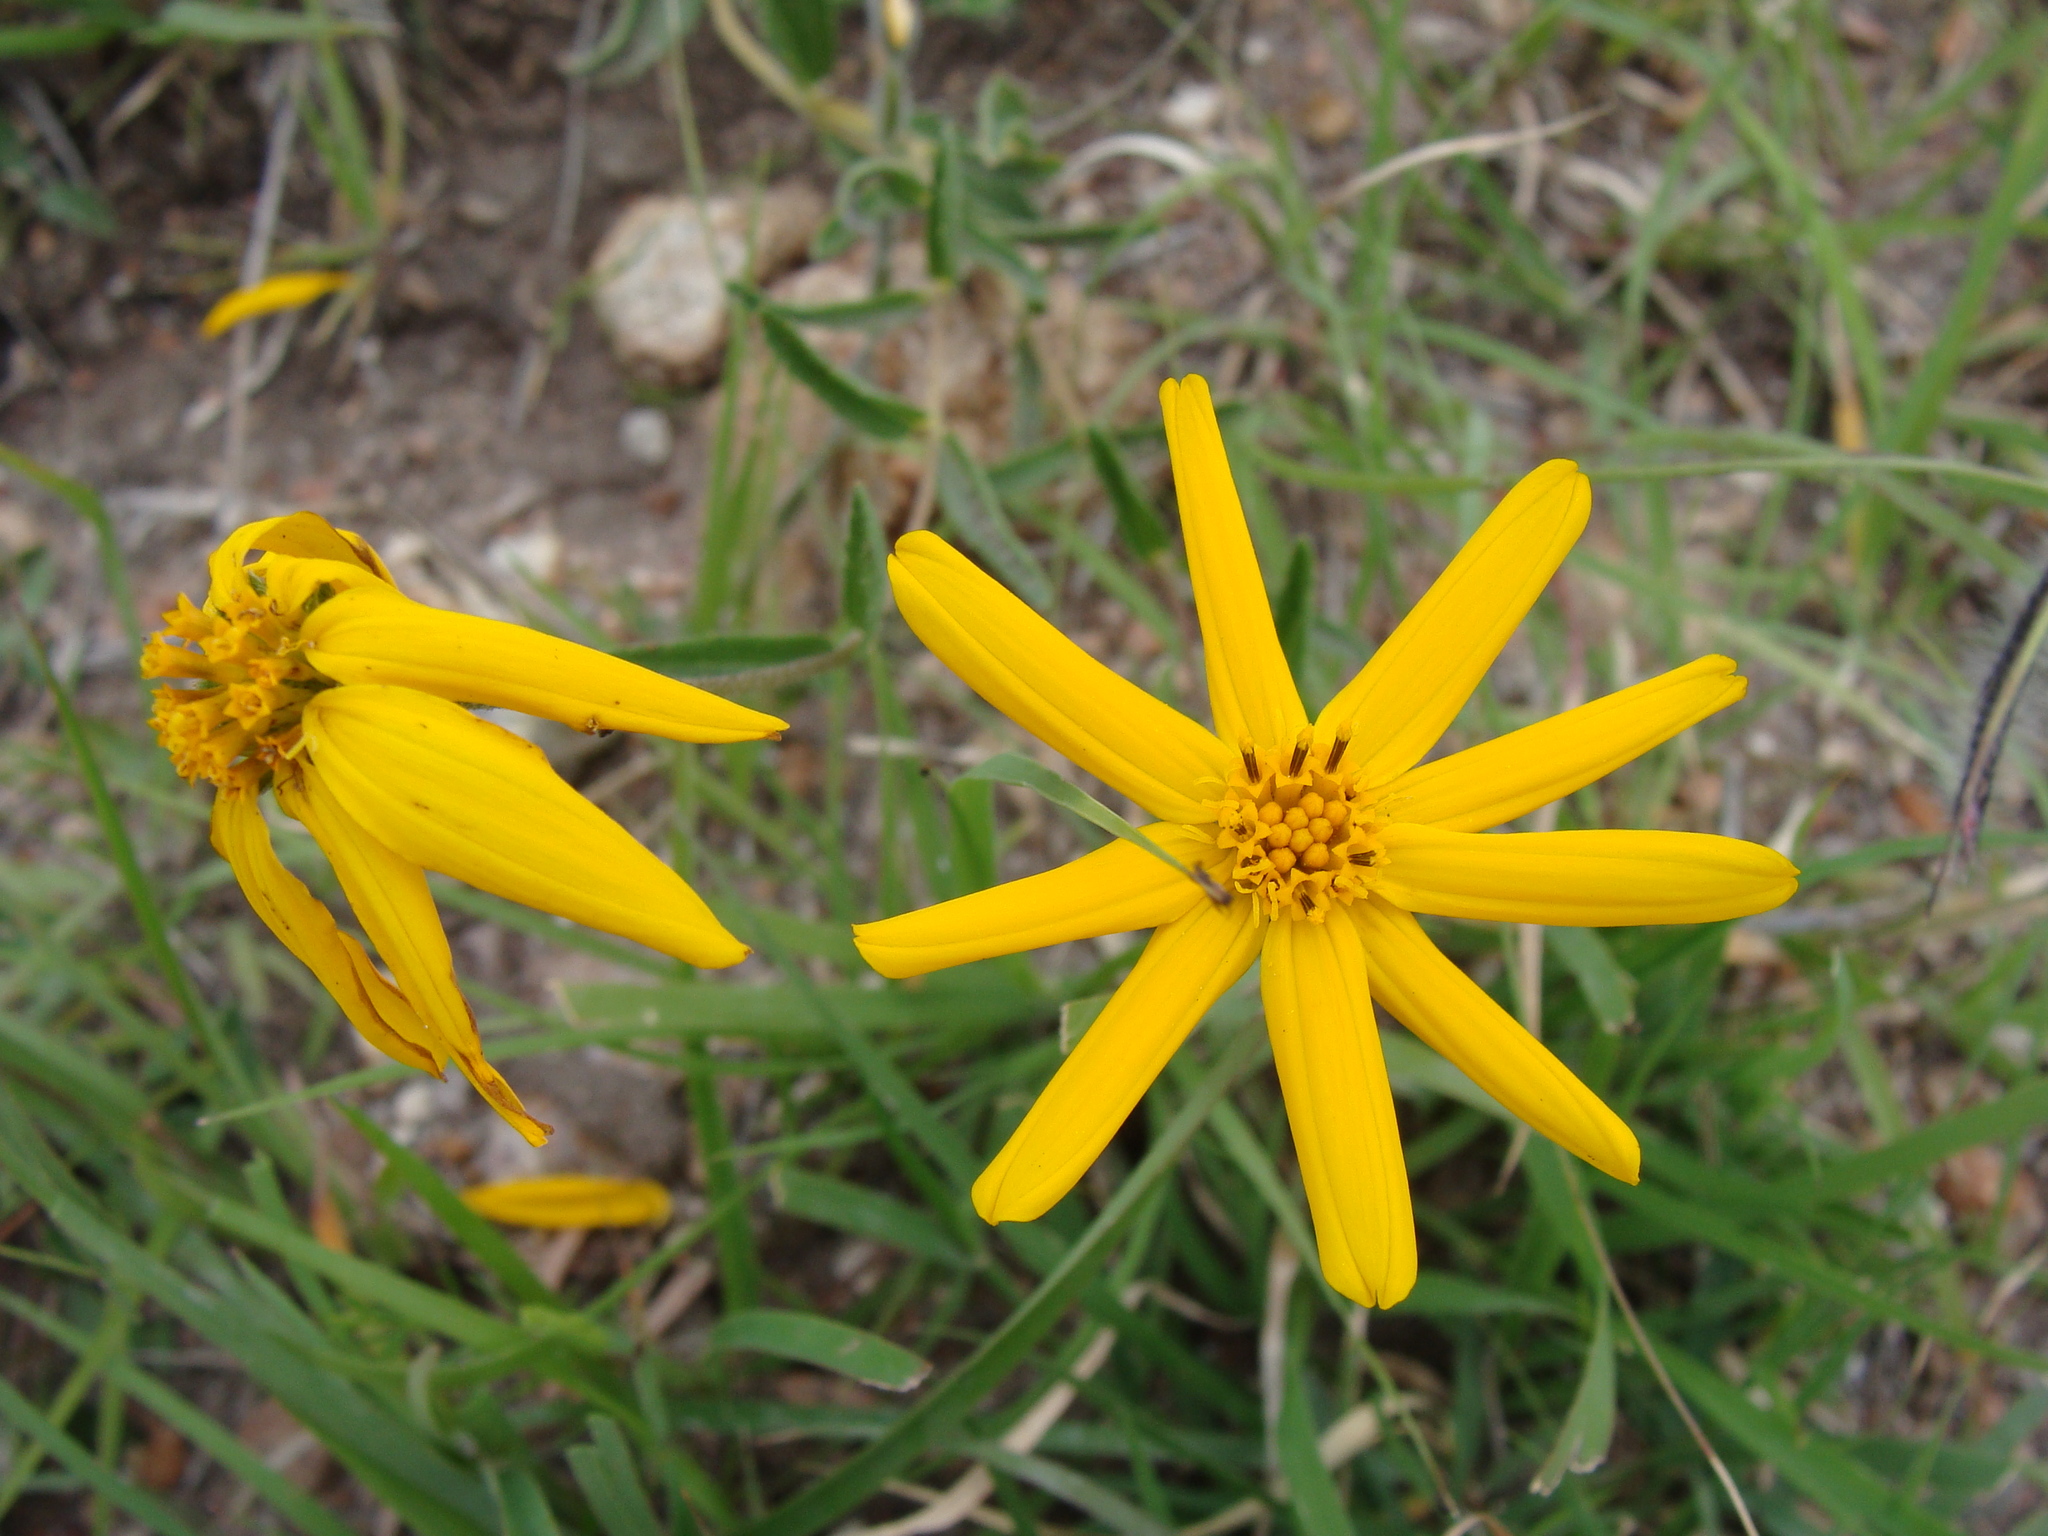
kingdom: Plantae
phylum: Tracheophyta
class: Magnoliopsida
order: Asterales
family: Asteraceae
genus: Lasianthaea
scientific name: Lasianthaea aurea
